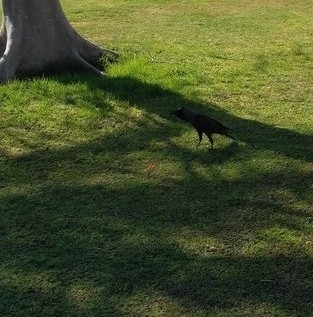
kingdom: Animalia
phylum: Chordata
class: Aves
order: Passeriformes
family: Corvidae
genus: Corvus
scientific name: Corvus splendens
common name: House crow
